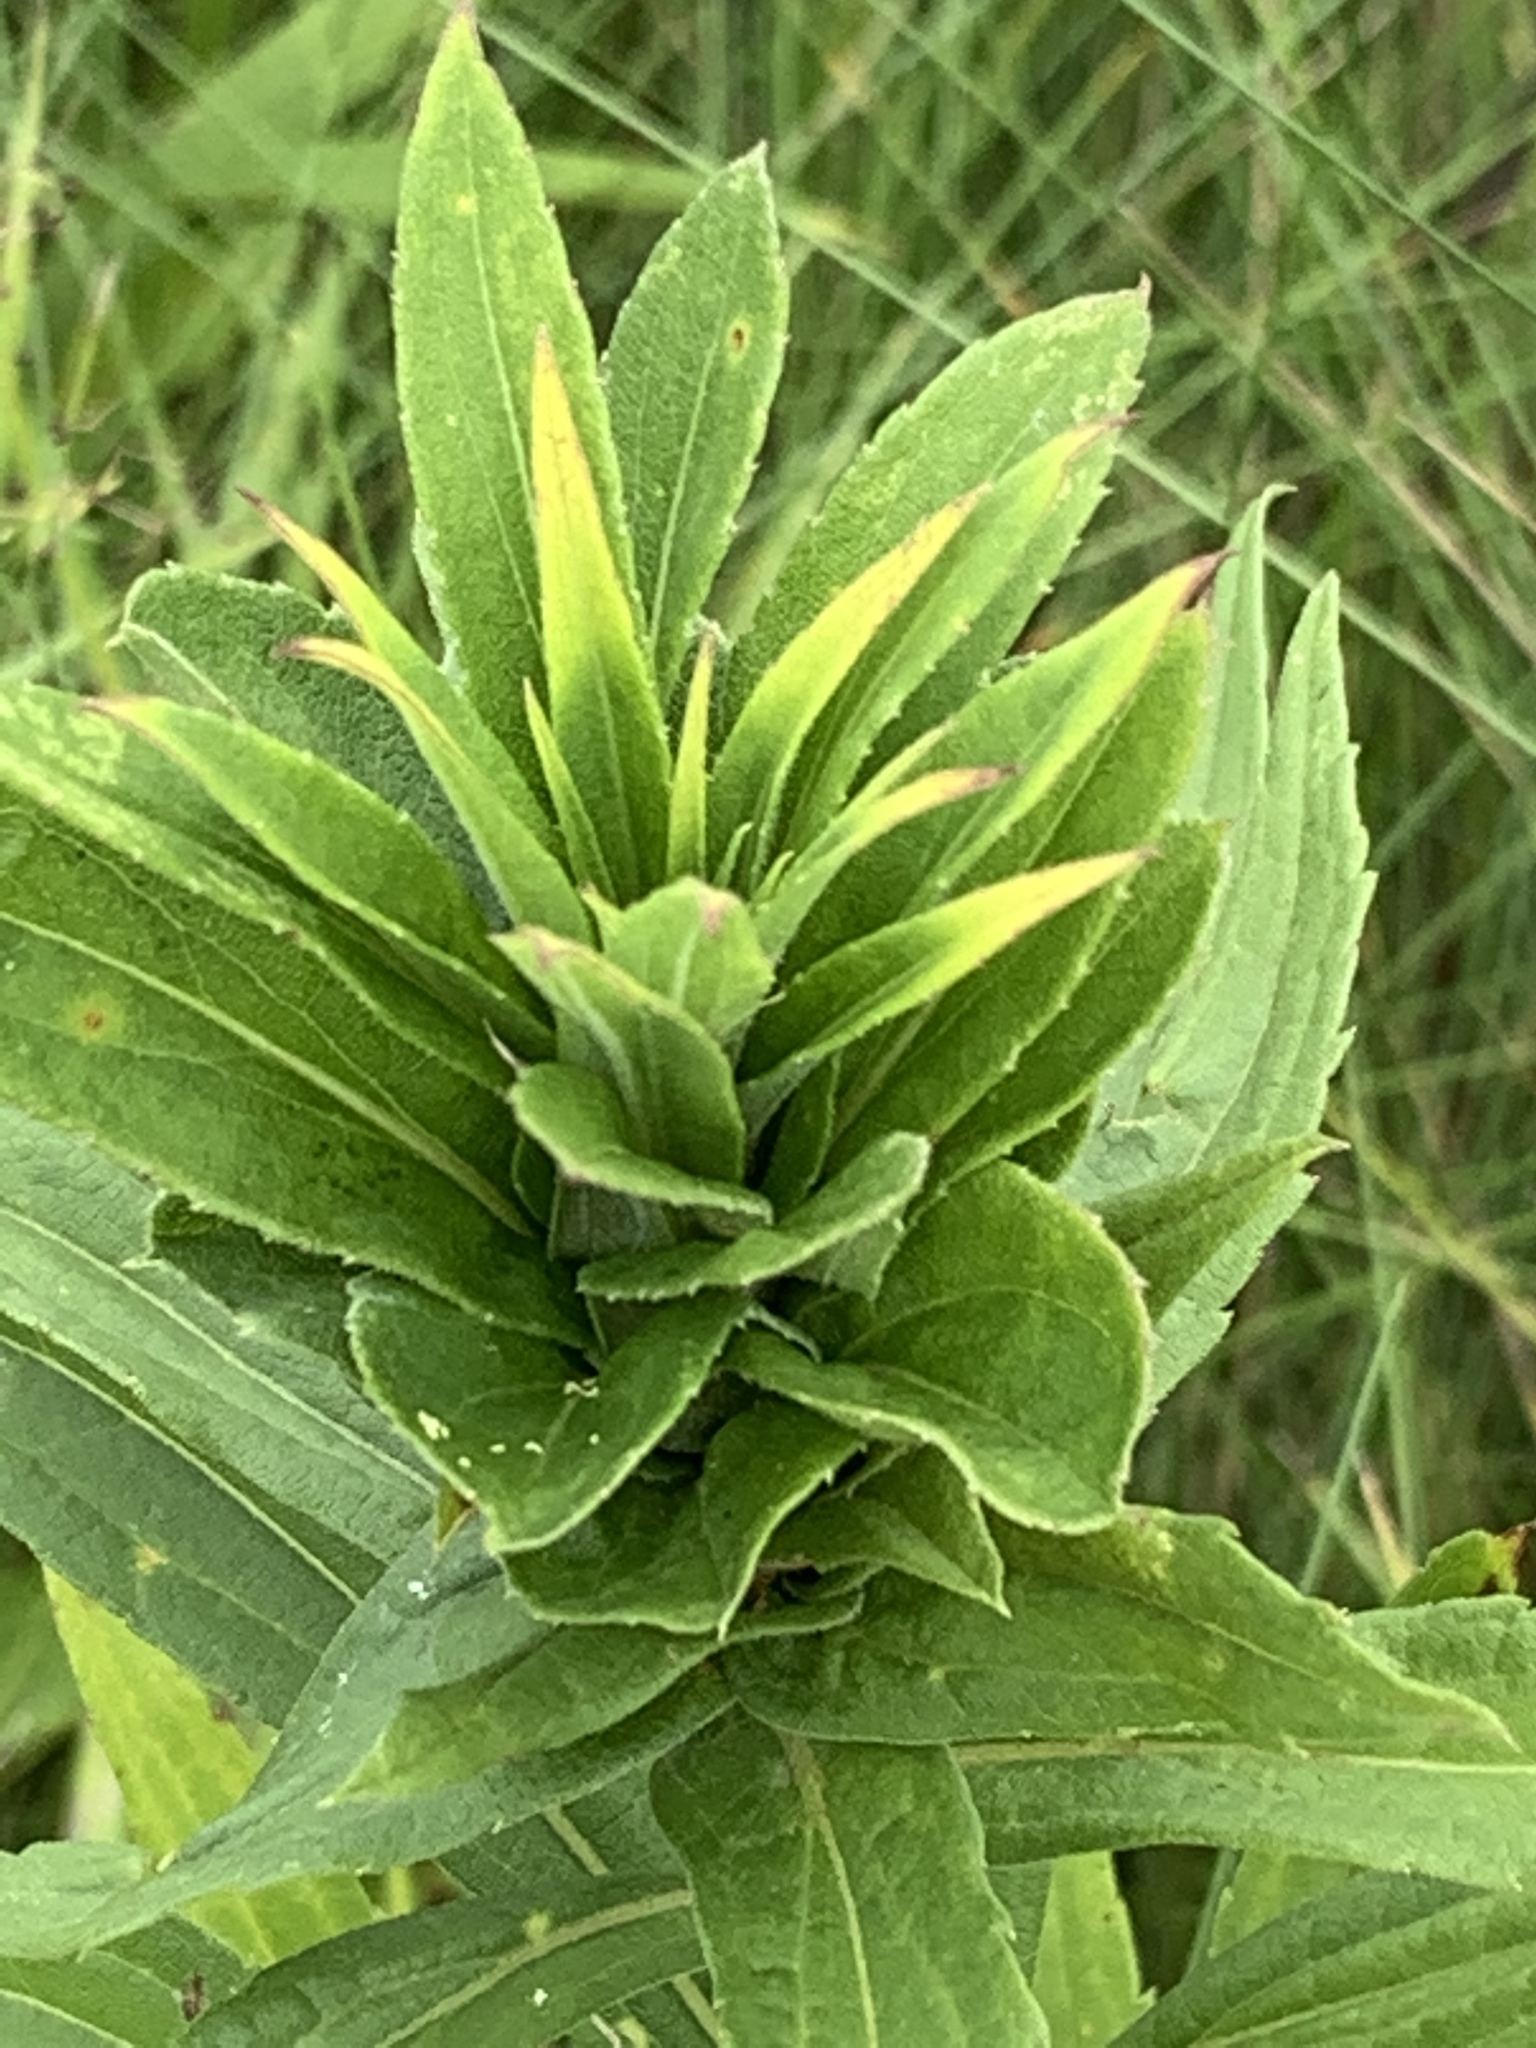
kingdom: Animalia
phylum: Arthropoda
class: Insecta
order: Diptera
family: Cecidomyiidae
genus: Rhopalomyia
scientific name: Rhopalomyia solidaginis
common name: Goldenrod bunch gall midge
